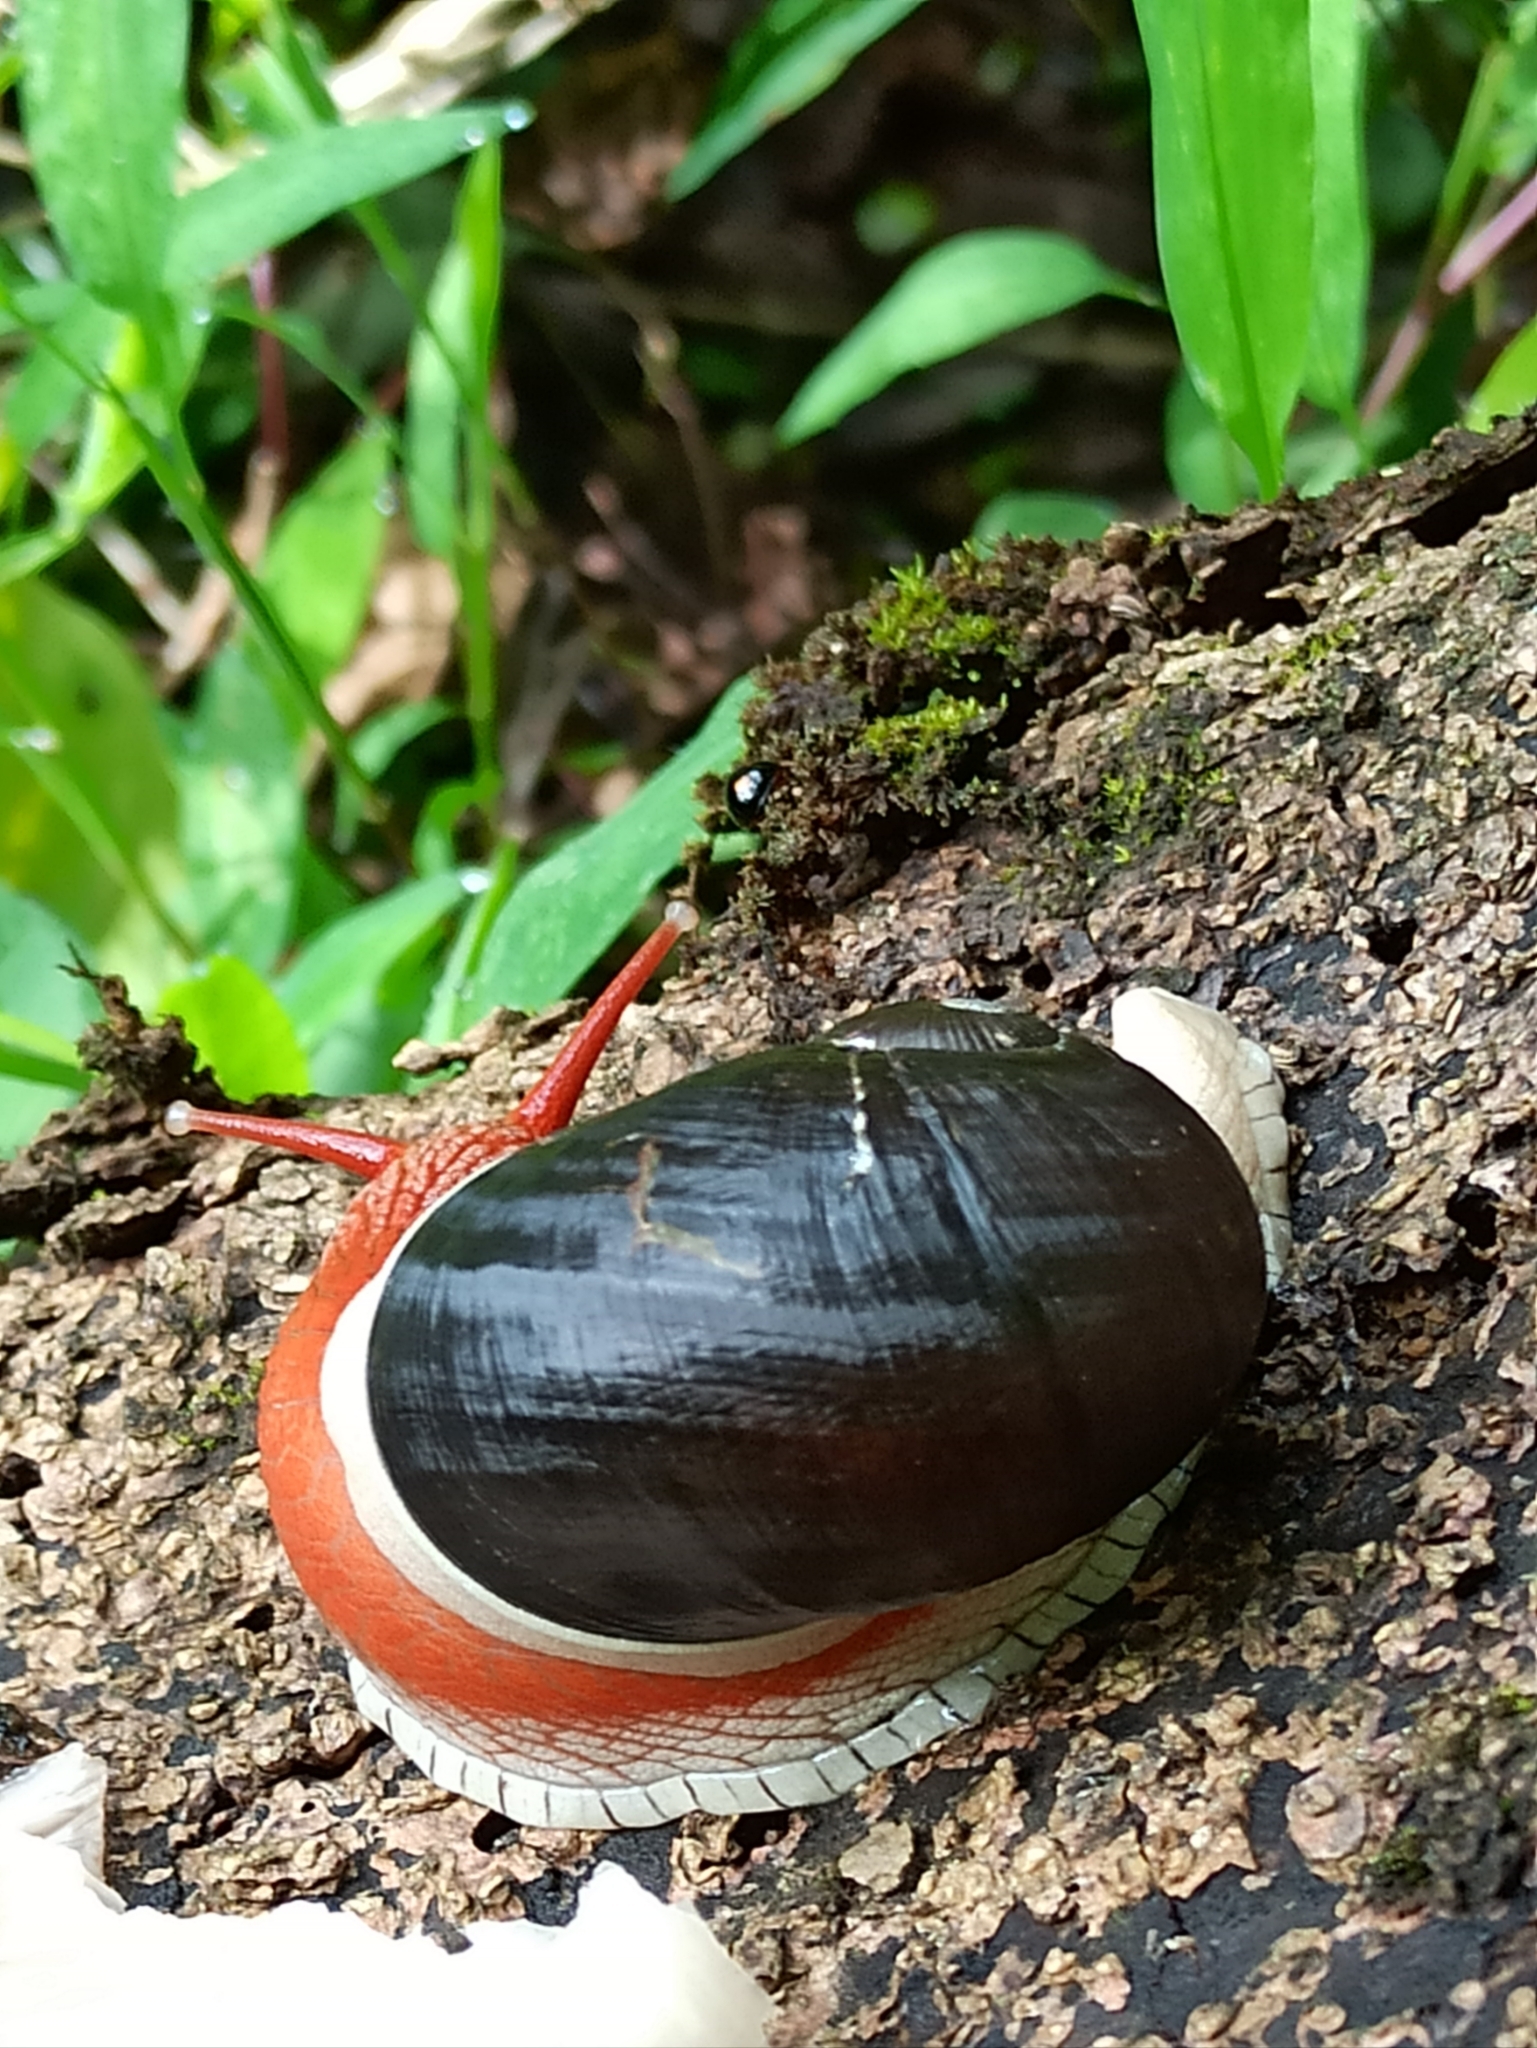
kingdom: Animalia
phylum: Mollusca
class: Gastropoda
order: Stylommatophora
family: Ariophantidae
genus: Indrella
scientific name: Indrella ampulla
